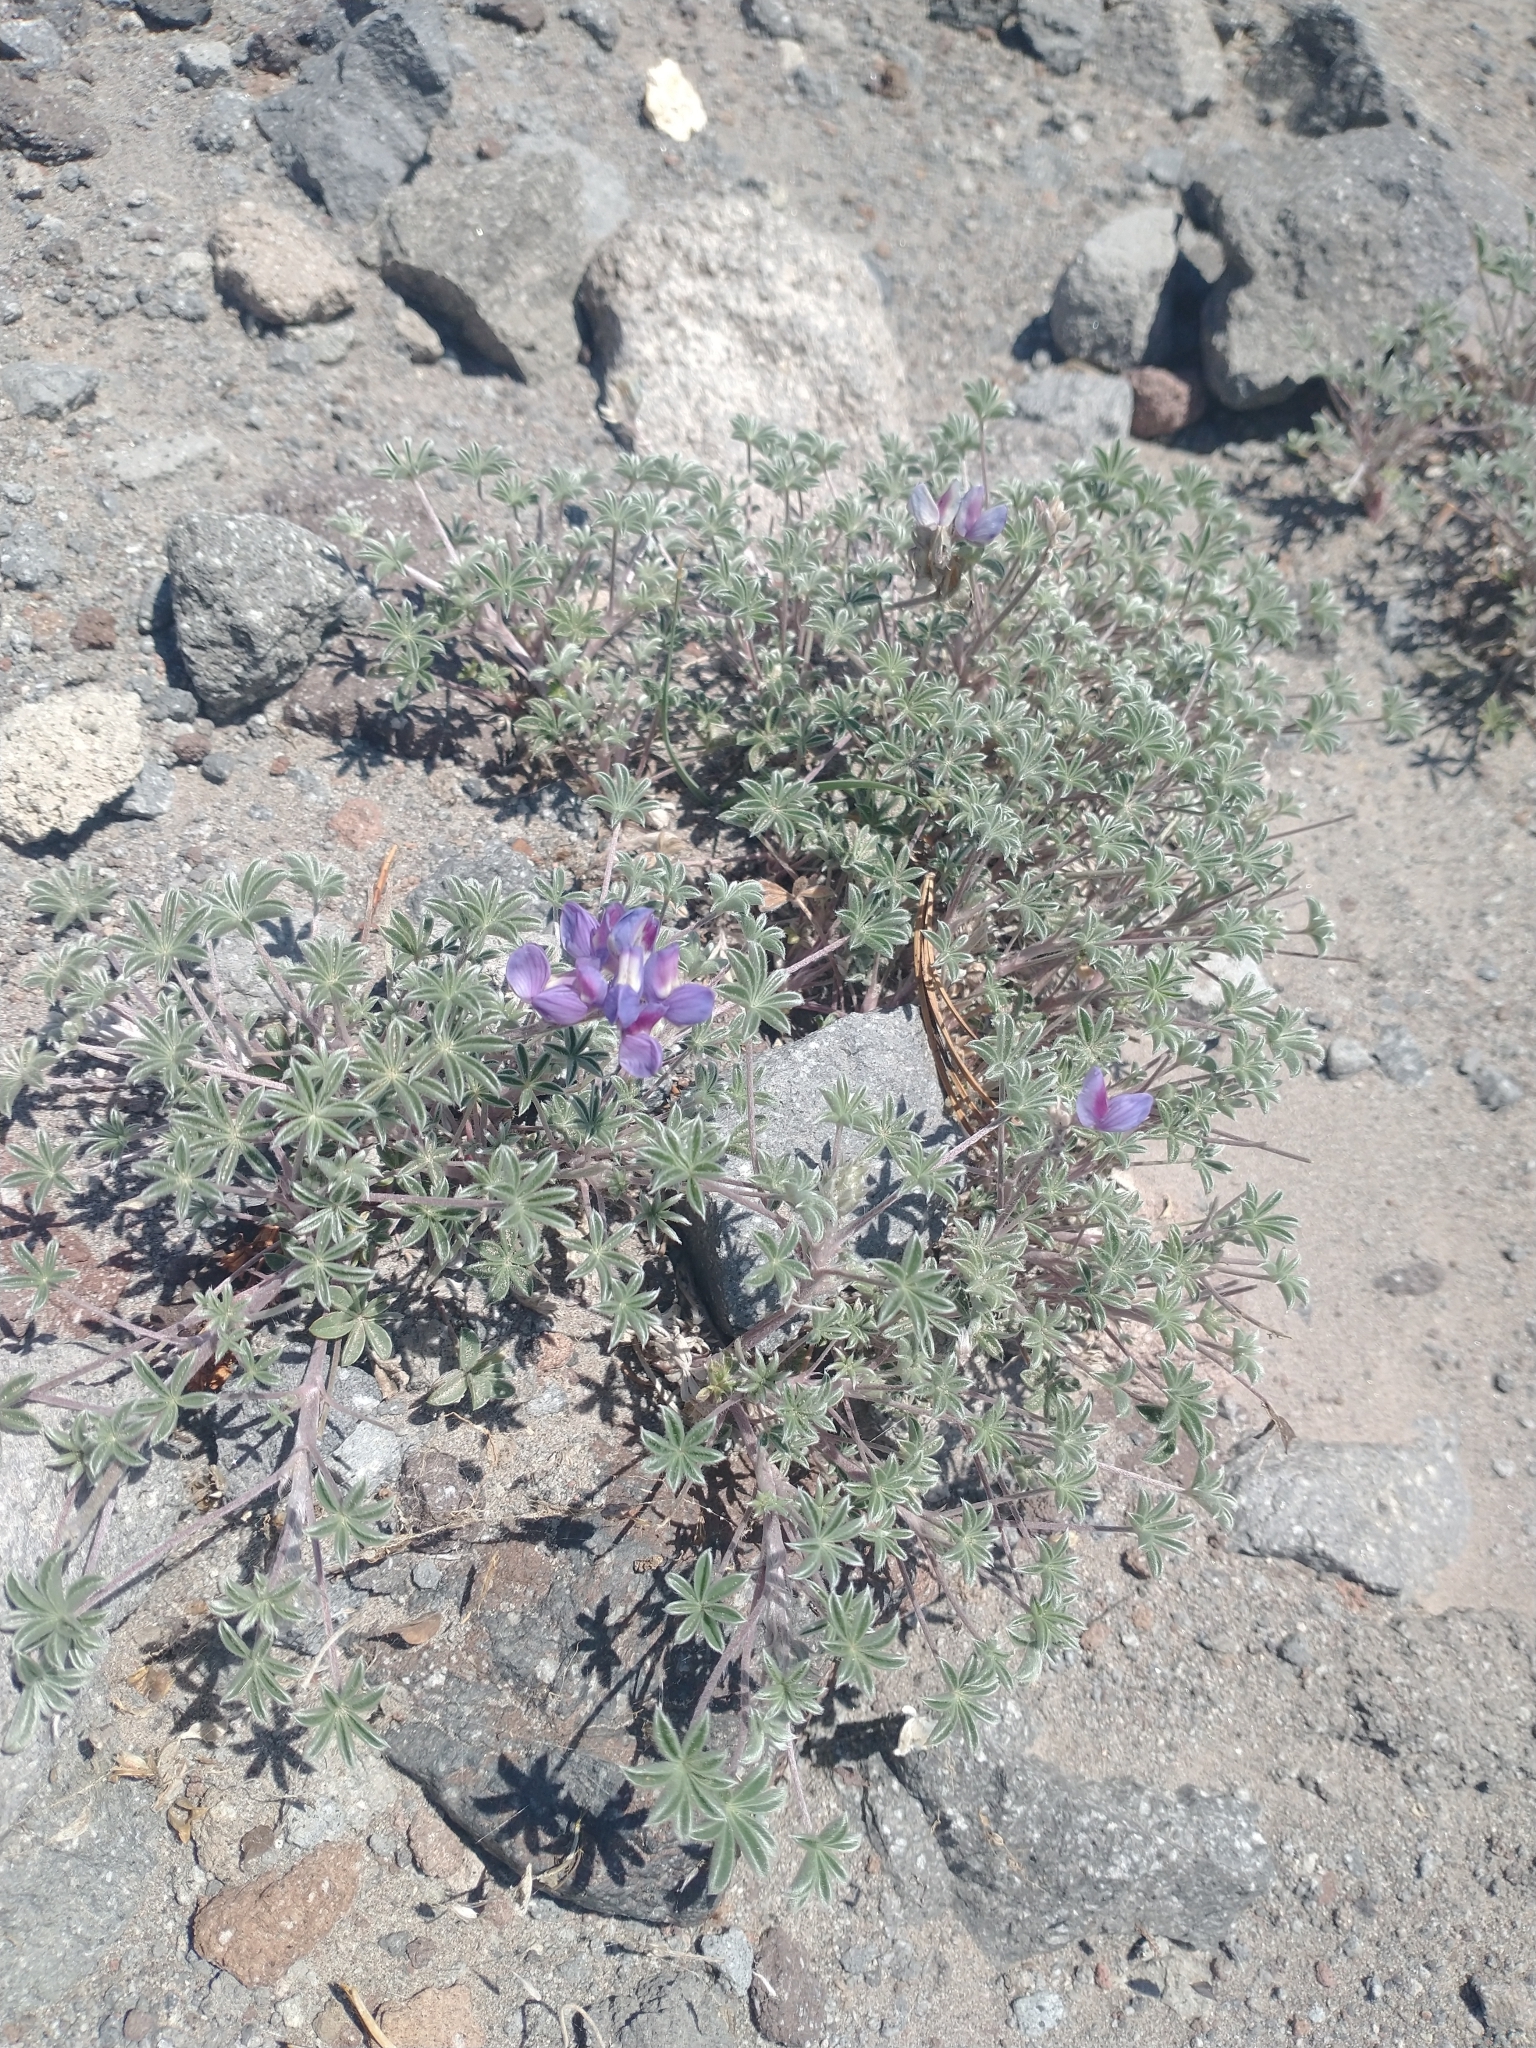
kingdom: Plantae
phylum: Tracheophyta
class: Magnoliopsida
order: Fabales
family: Fabaceae
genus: Lupinus
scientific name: Lupinus lepidus
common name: Prairie lupine
